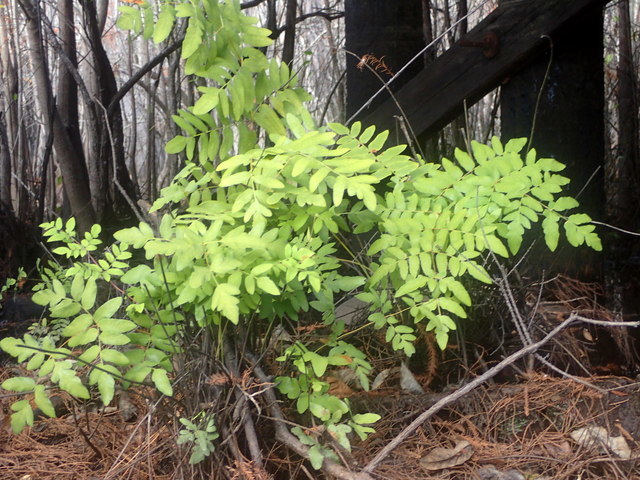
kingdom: Plantae
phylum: Tracheophyta
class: Polypodiopsida
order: Osmundales
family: Osmundaceae
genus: Osmunda
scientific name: Osmunda spectabilis
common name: American royal fern
